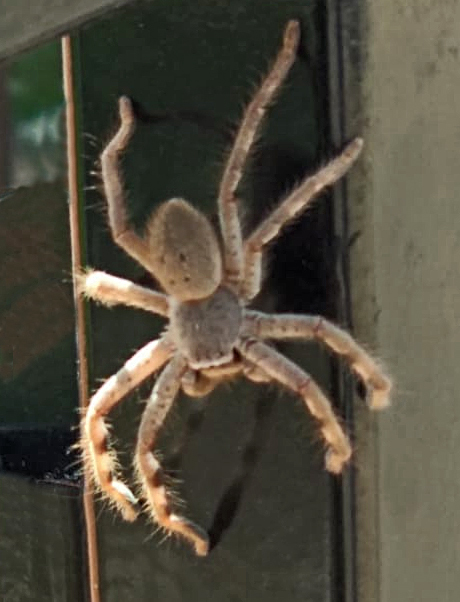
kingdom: Animalia
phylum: Arthropoda
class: Arachnida
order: Araneae
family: Sparassidae
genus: Isopedella
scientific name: Isopedella leai
